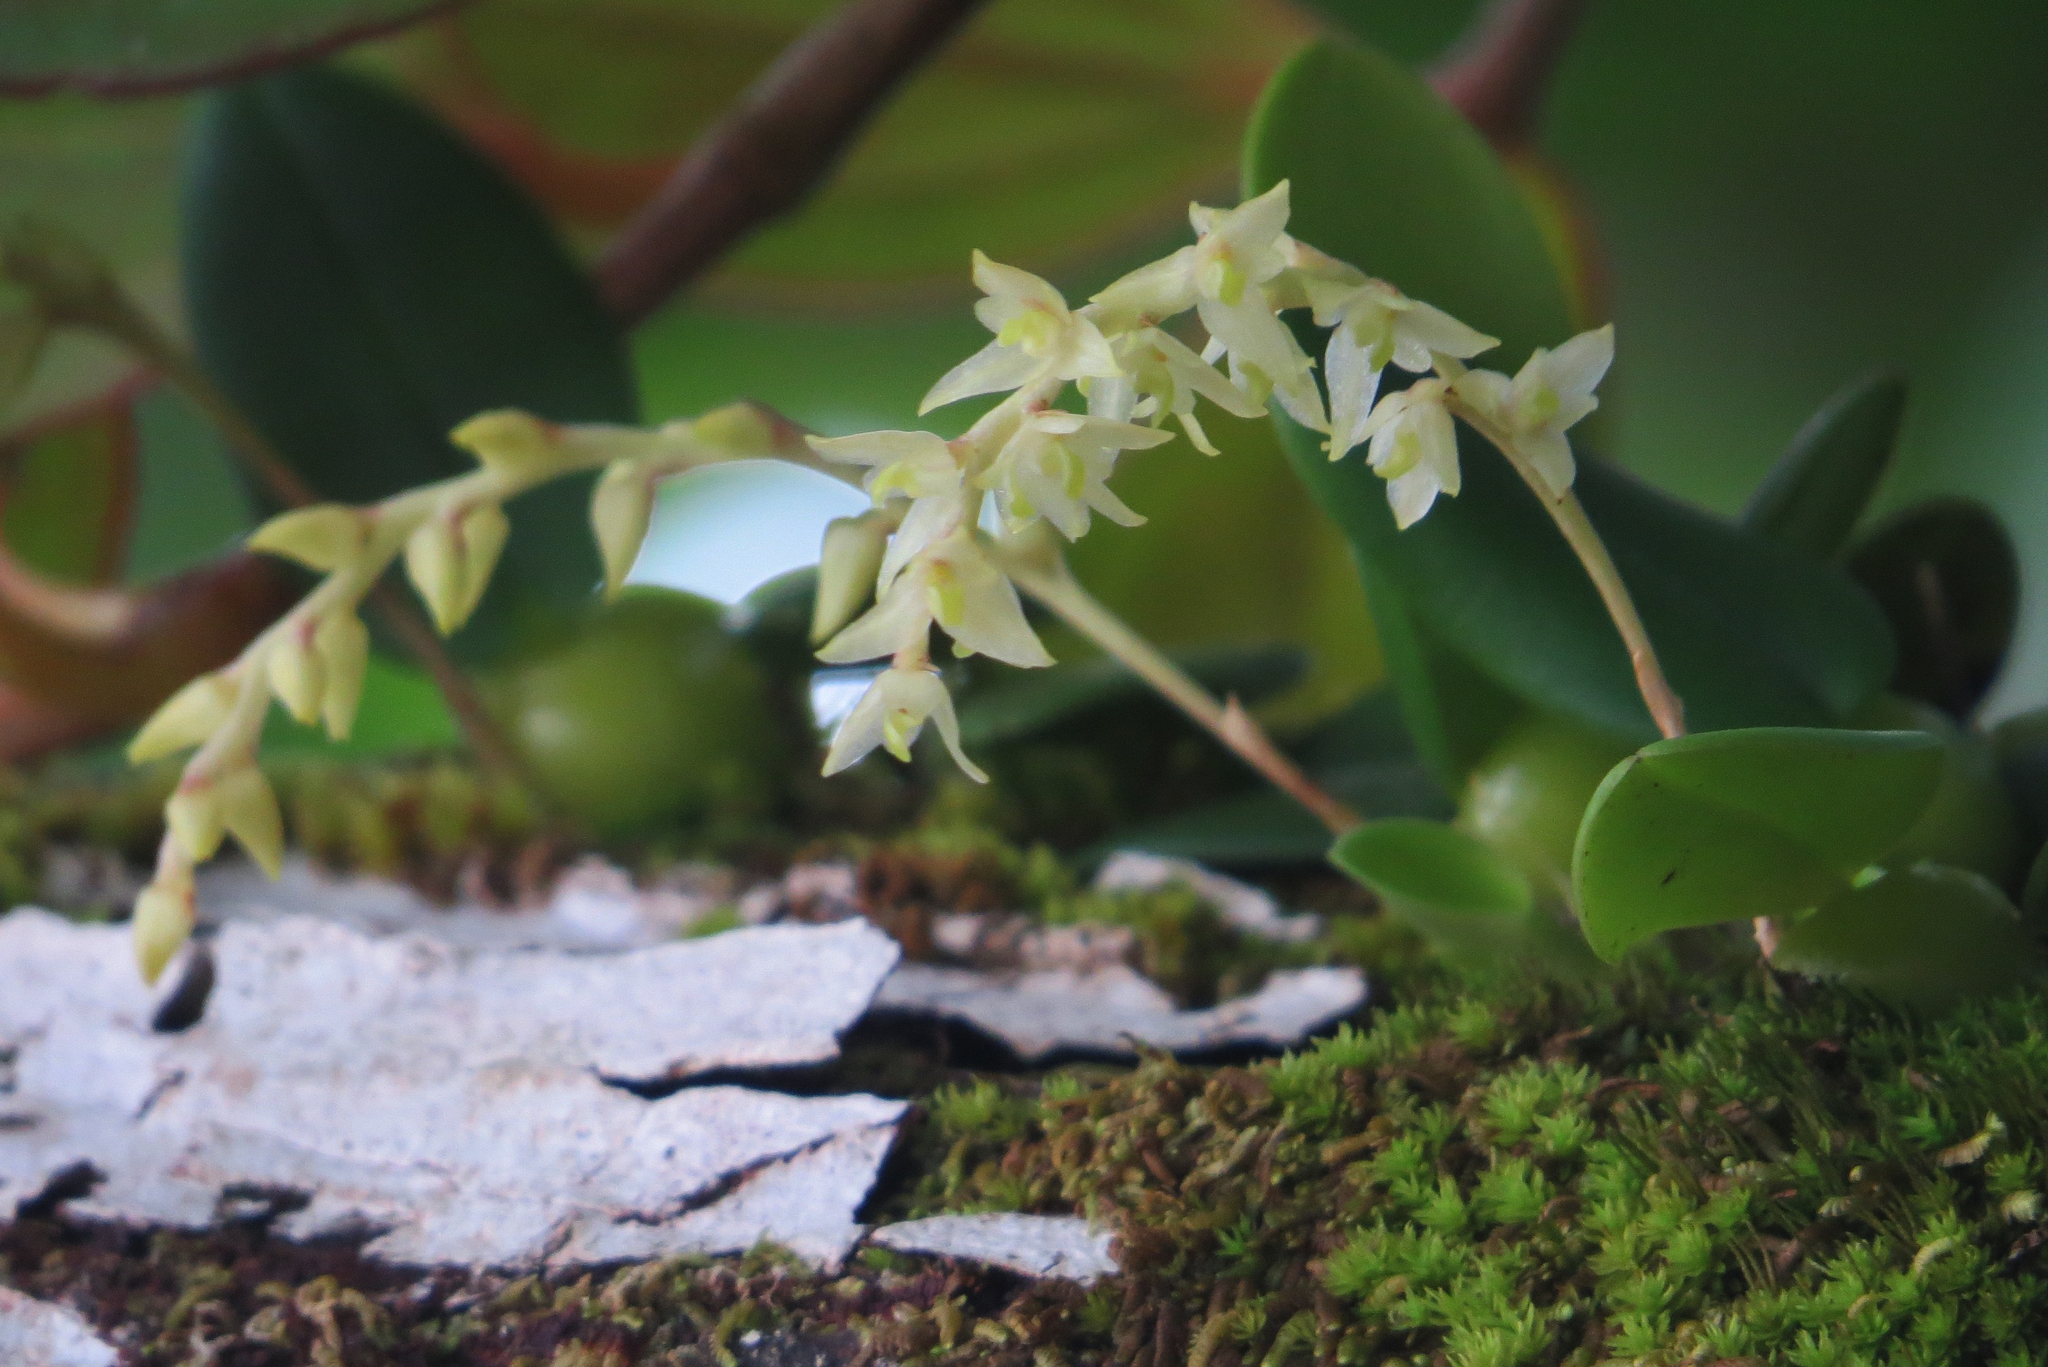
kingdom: Plantae
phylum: Tracheophyta
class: Liliopsida
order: Asparagales
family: Orchidaceae
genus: Bulbophyllum
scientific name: Bulbophyllum conchidioides
